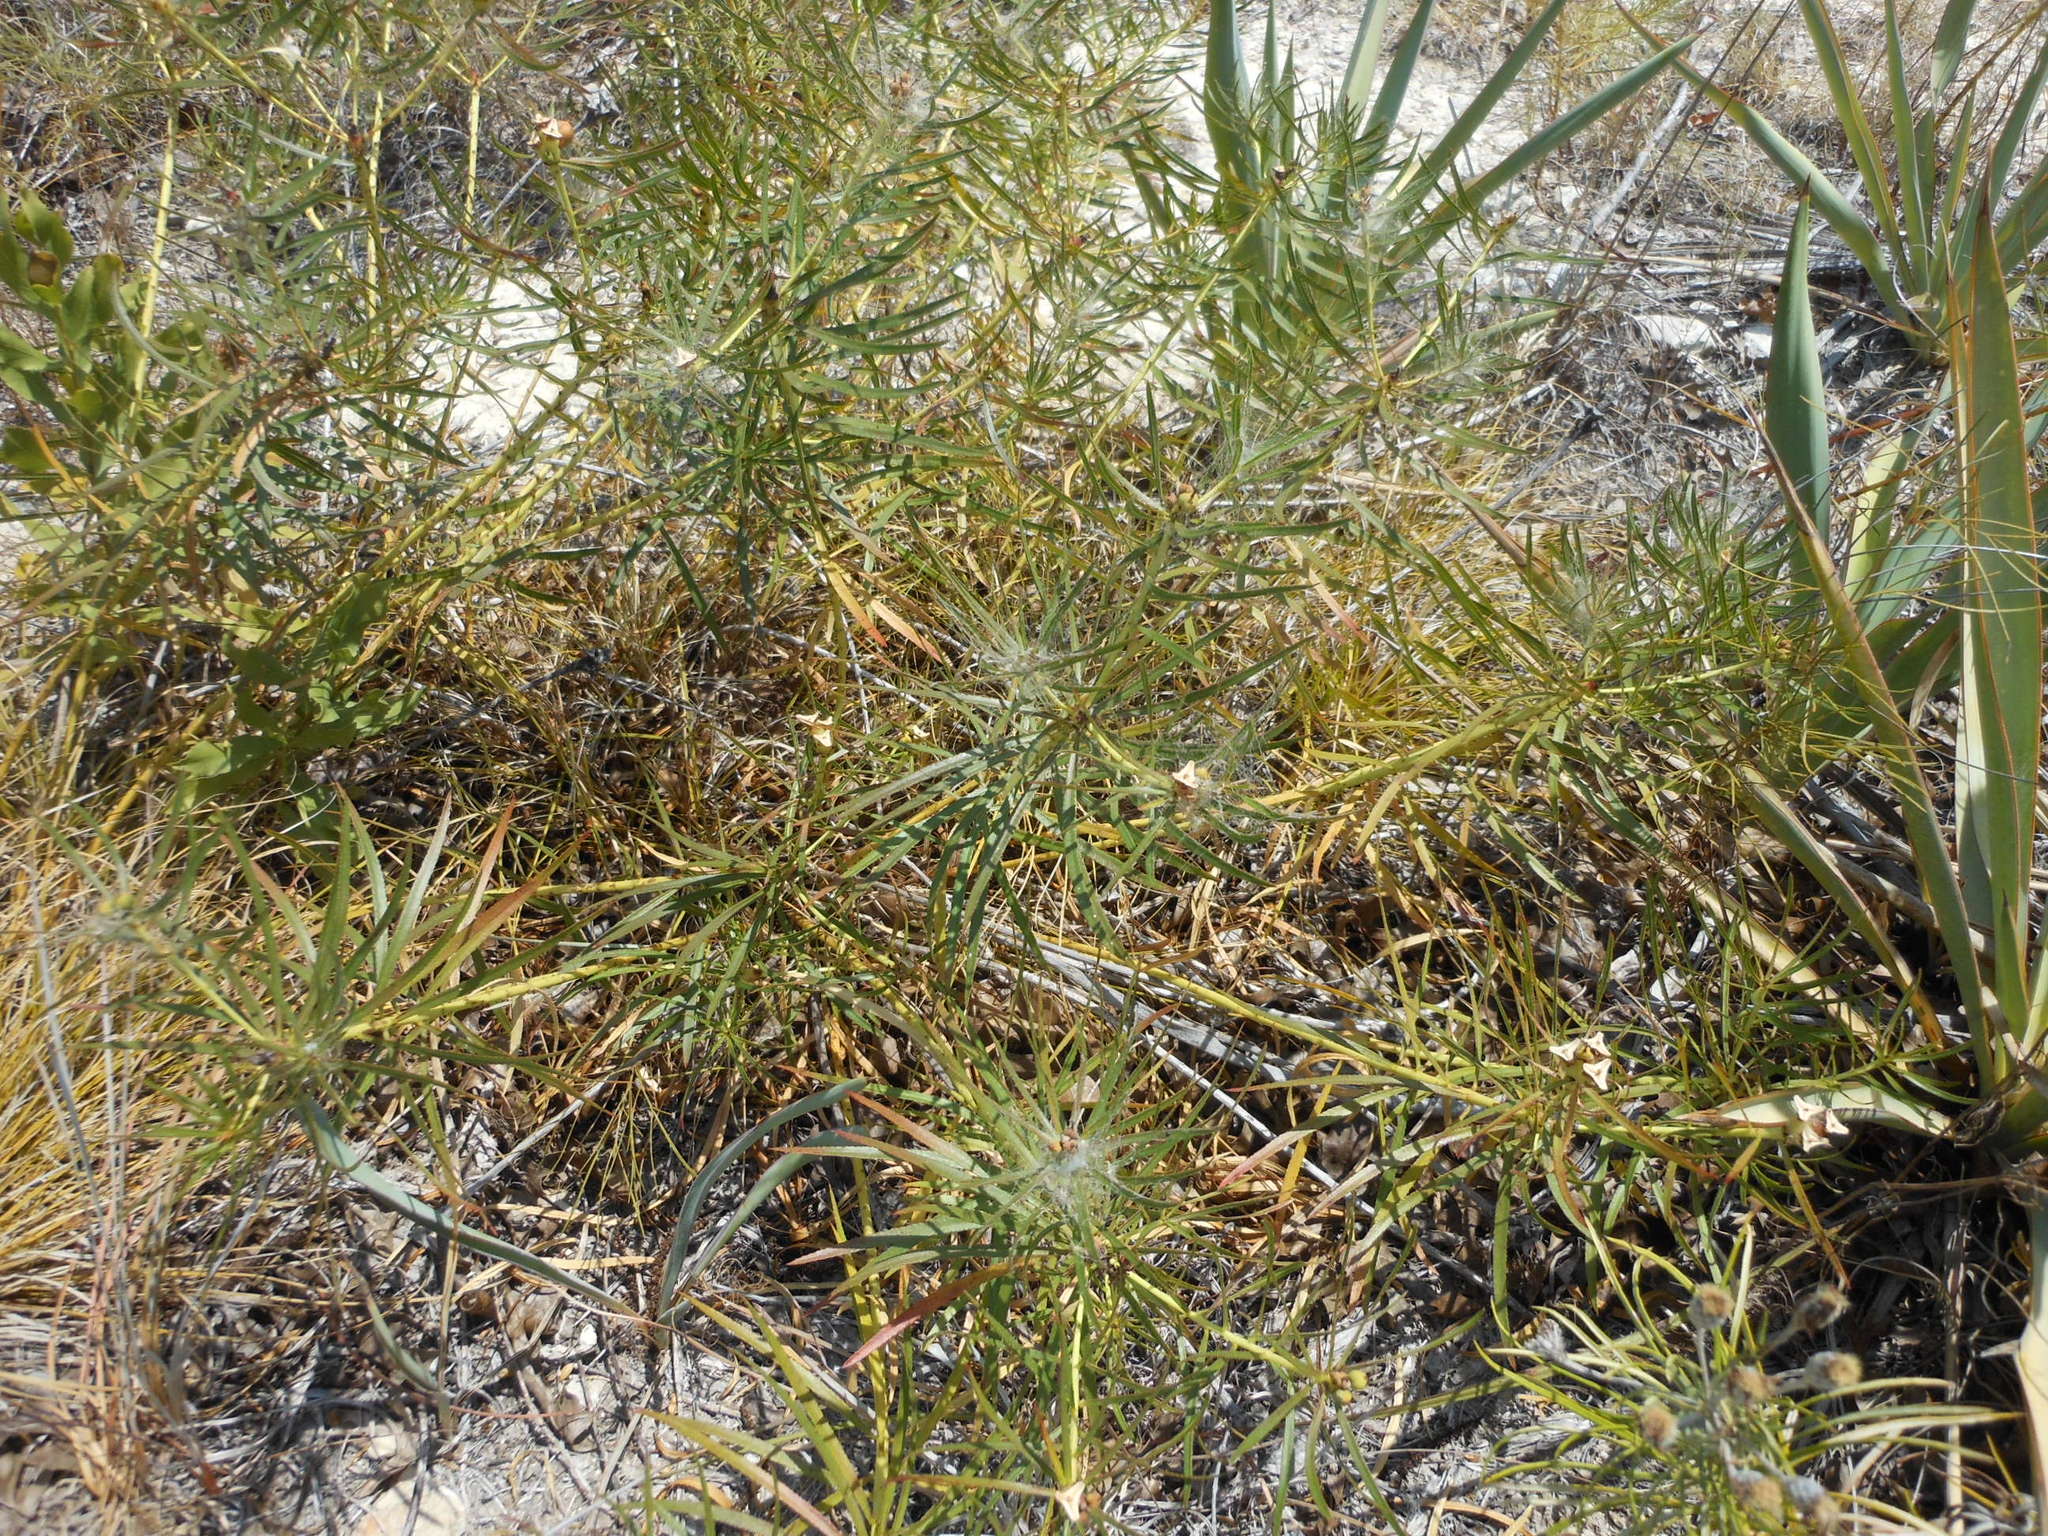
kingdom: Plantae
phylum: Tracheophyta
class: Magnoliopsida
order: Malpighiales
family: Euphorbiaceae
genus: Stillingia
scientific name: Stillingia texana
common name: Texas stillingia
